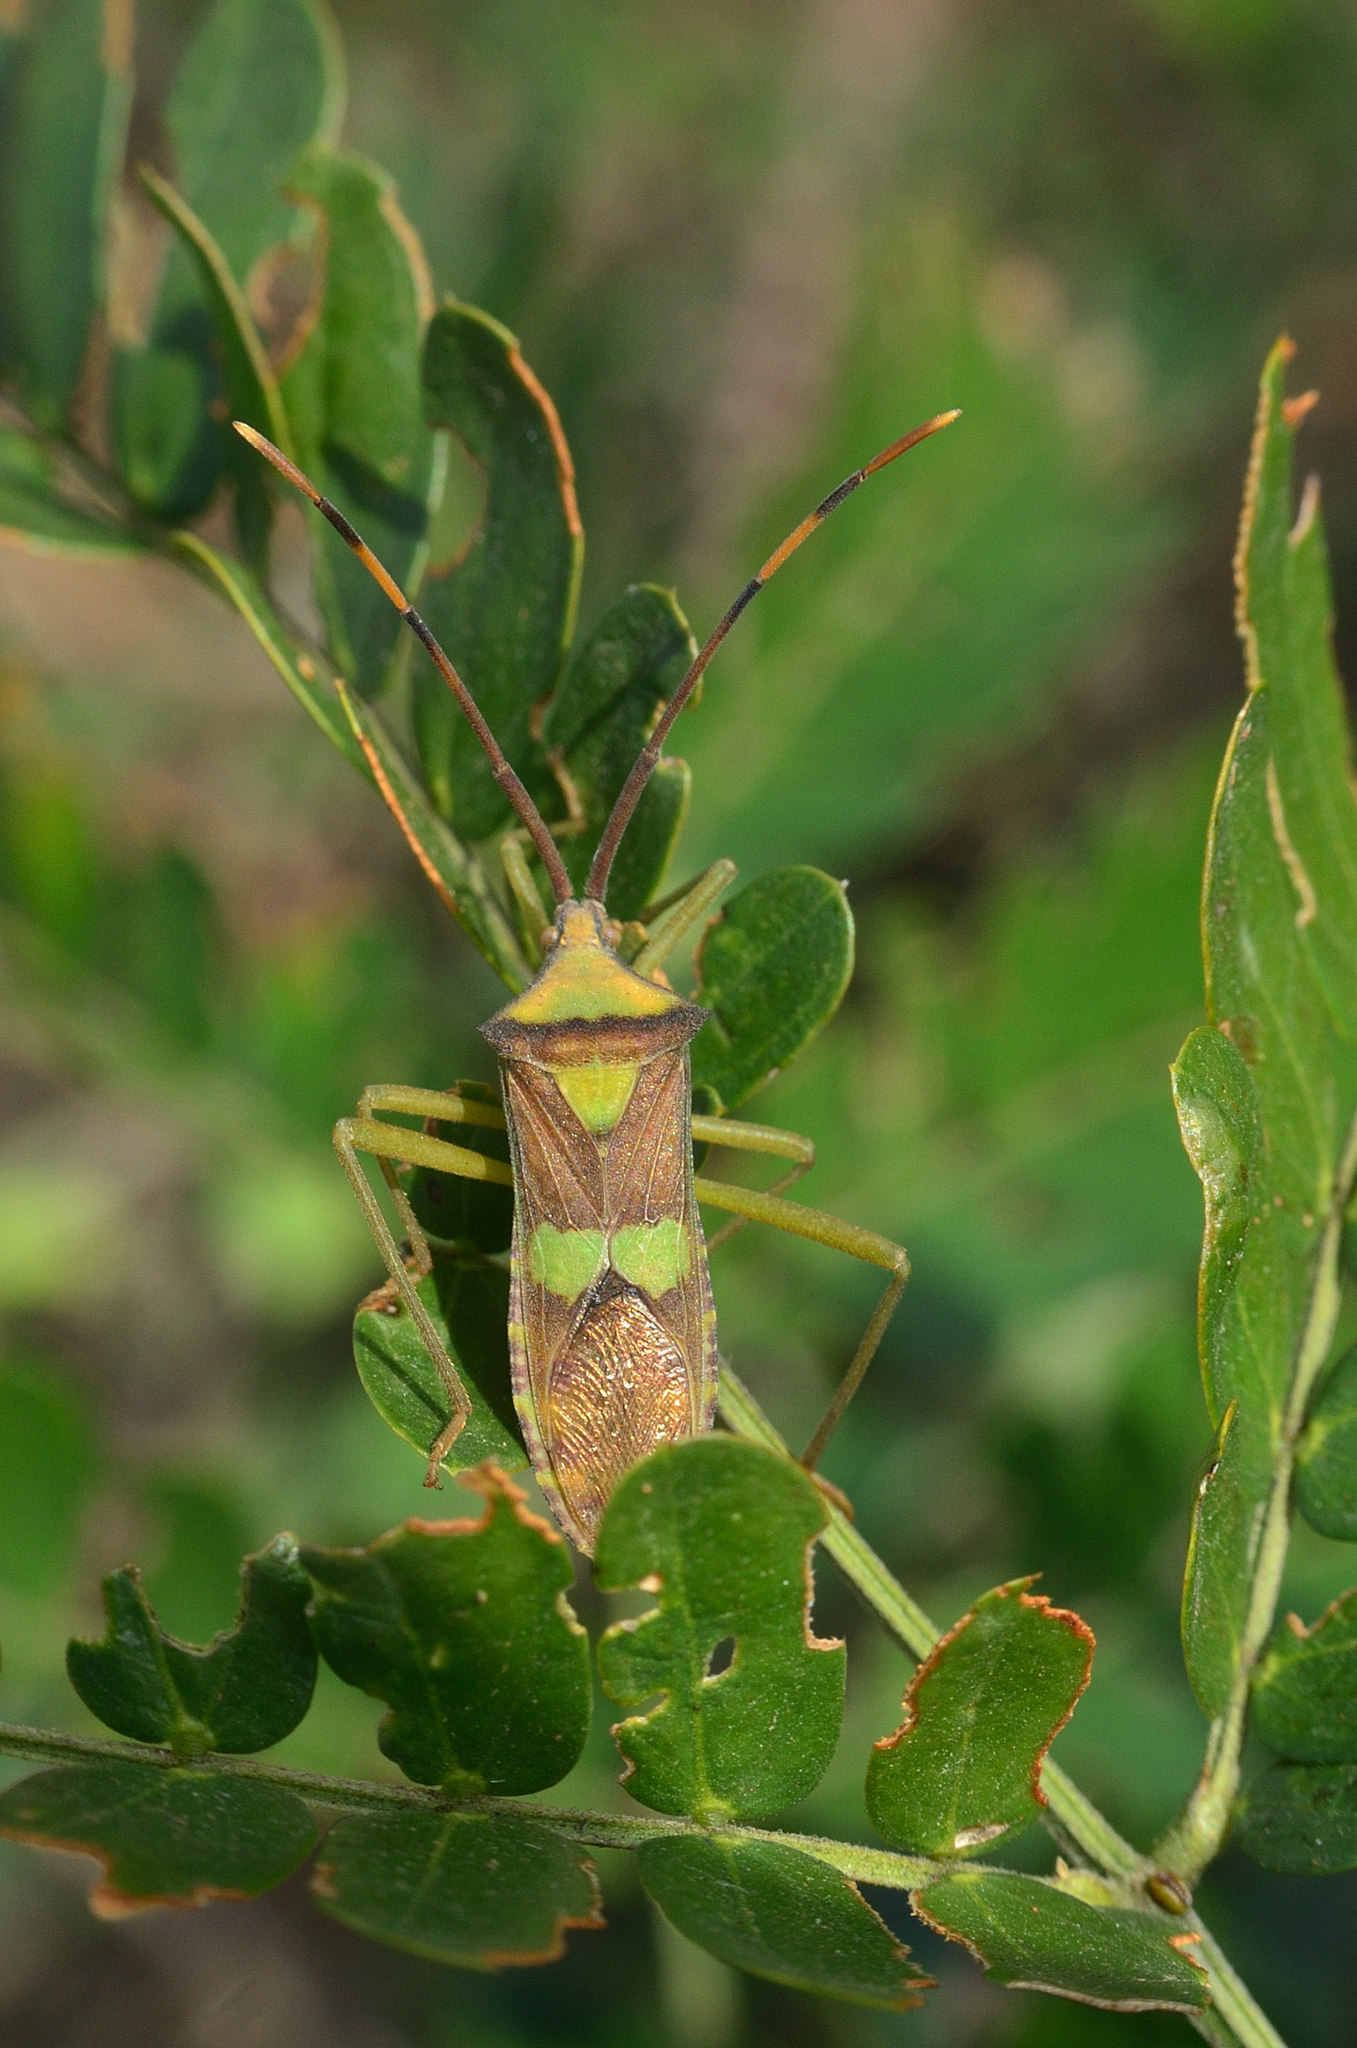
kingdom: Animalia
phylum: Arthropoda
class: Insecta
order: Hemiptera
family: Coreidae
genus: Prismatocerus
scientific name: Prismatocerus signatus
